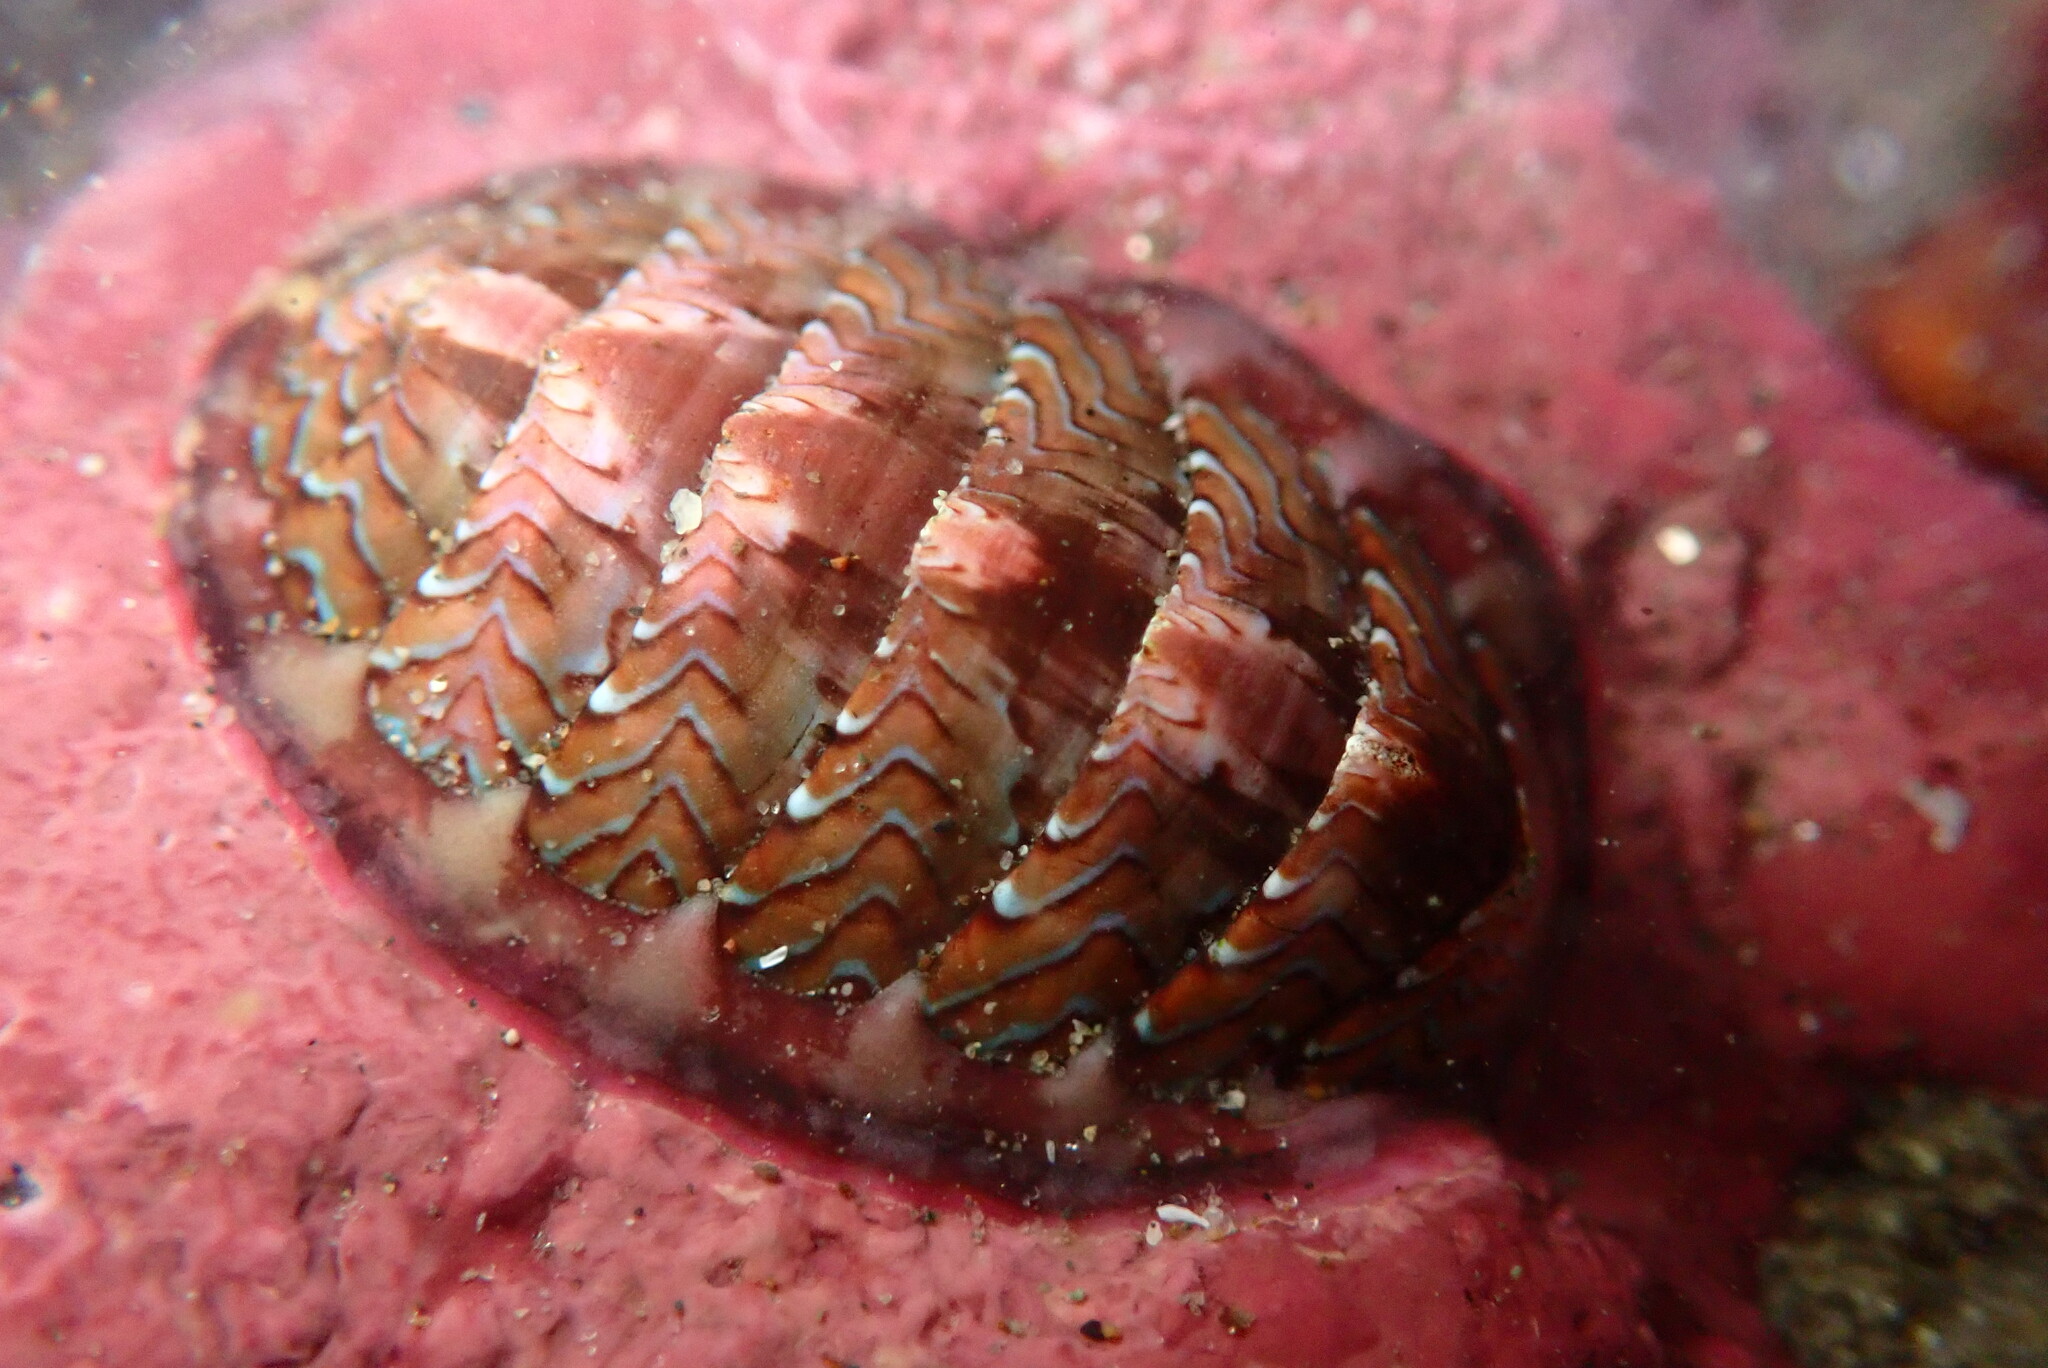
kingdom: Animalia
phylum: Mollusca
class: Polyplacophora
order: Chitonida
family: Tonicellidae
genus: Tonicella
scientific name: Tonicella lokii
